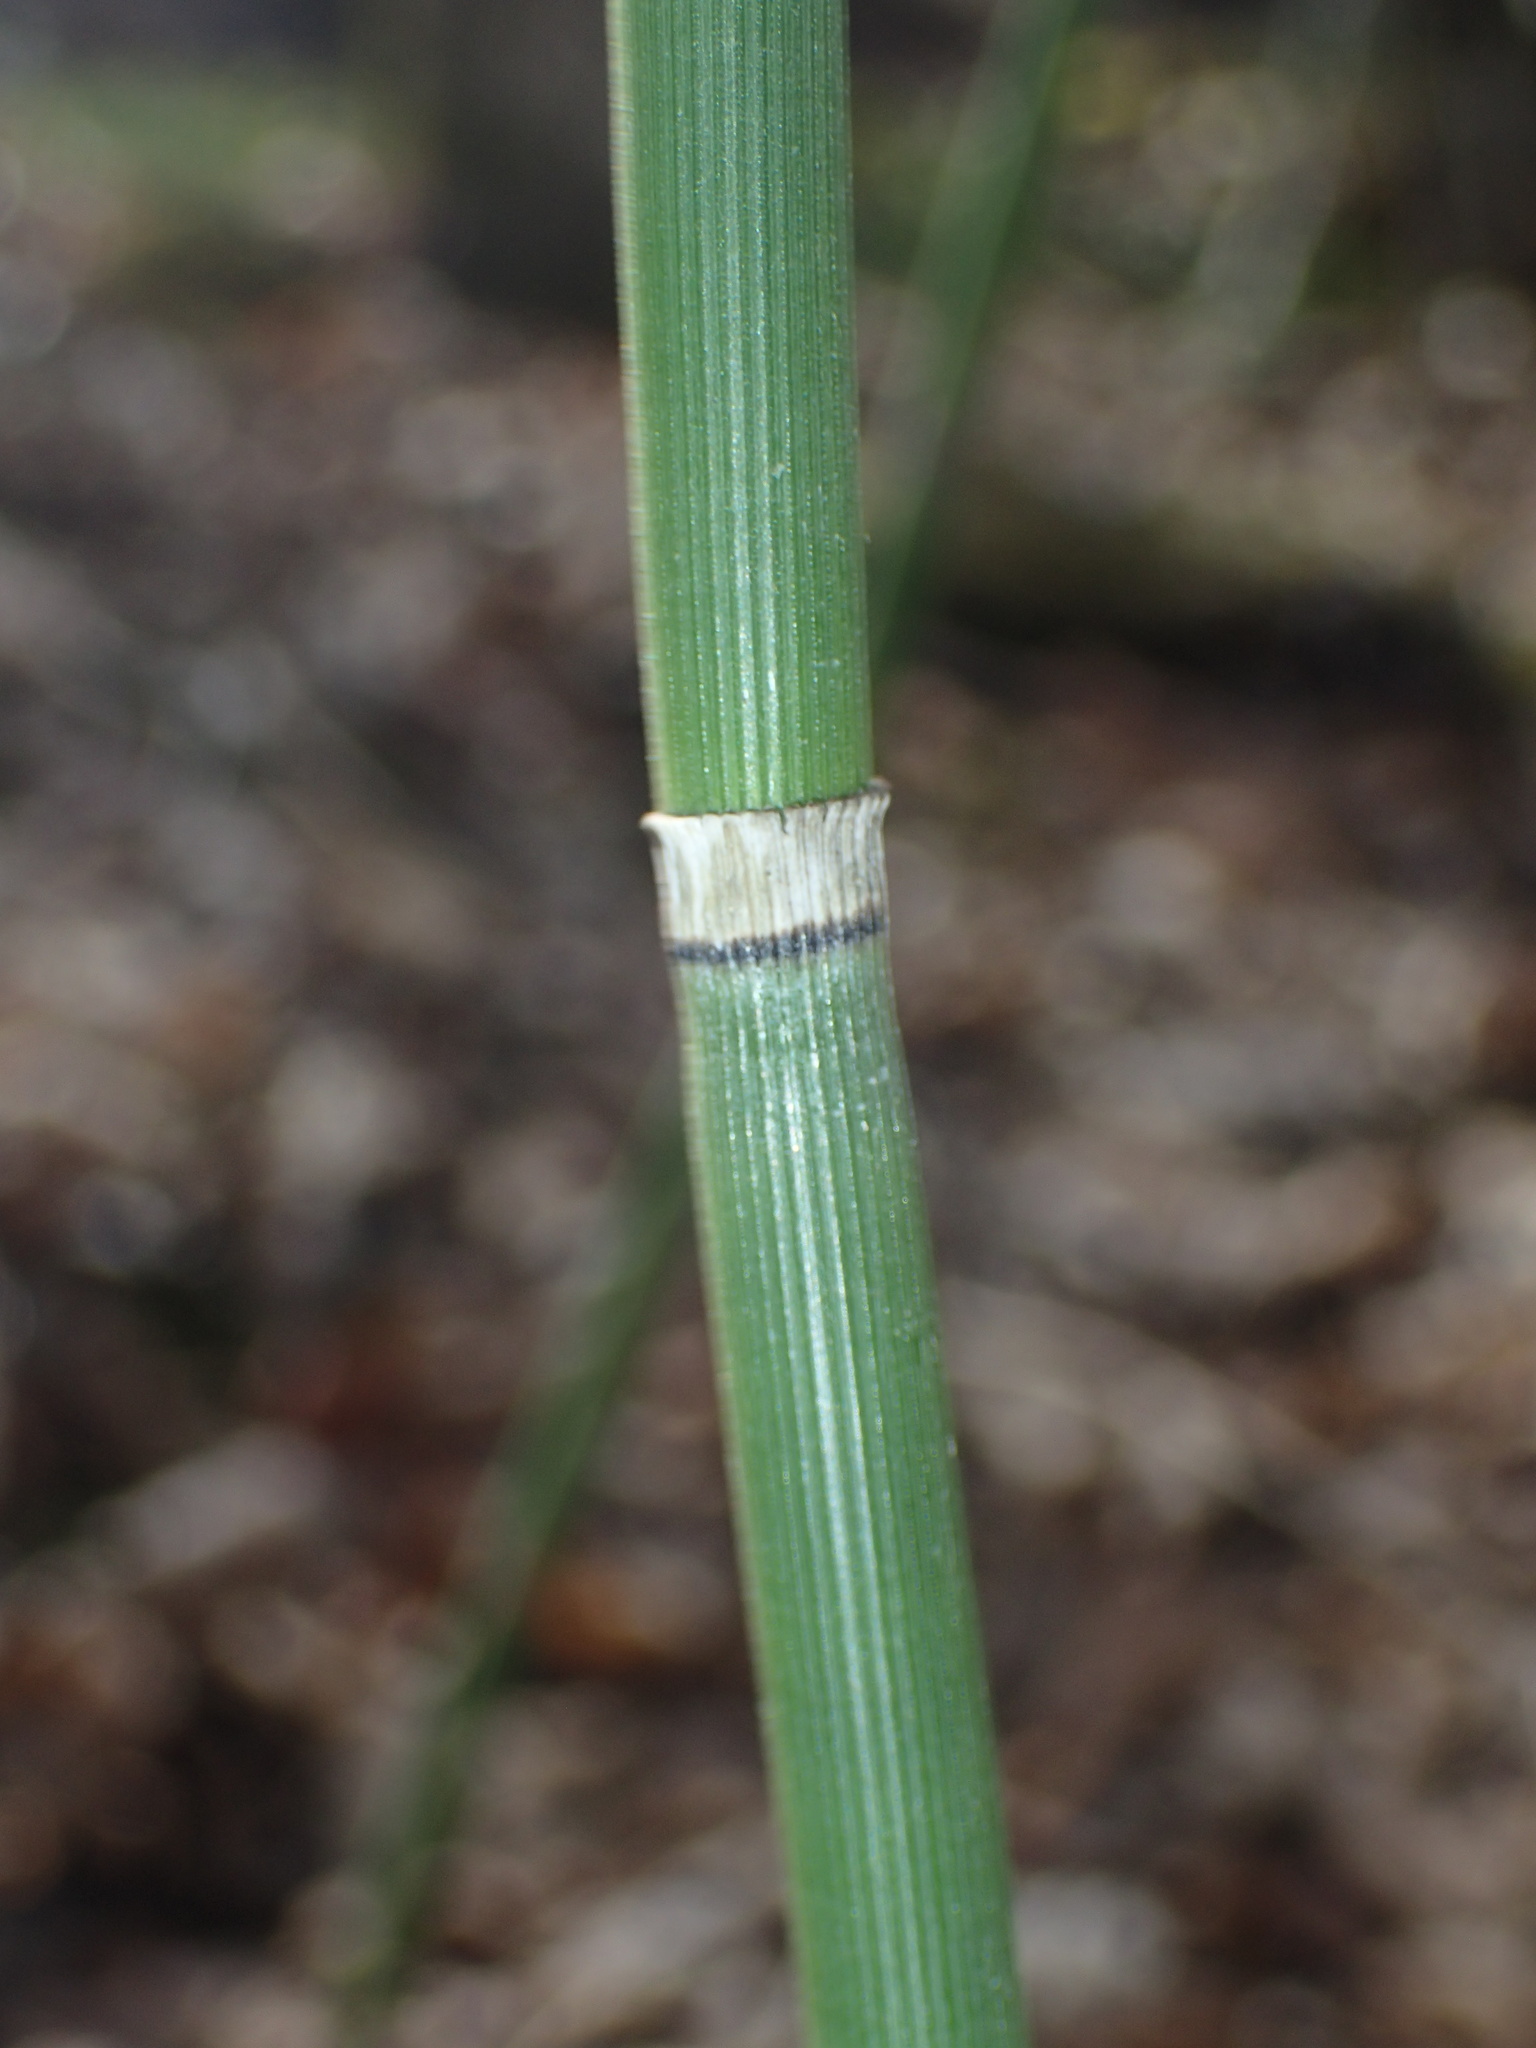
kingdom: Plantae
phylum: Tracheophyta
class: Polypodiopsida
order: Equisetales
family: Equisetaceae
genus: Equisetum
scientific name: Equisetum hyemale
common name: Rough horsetail
